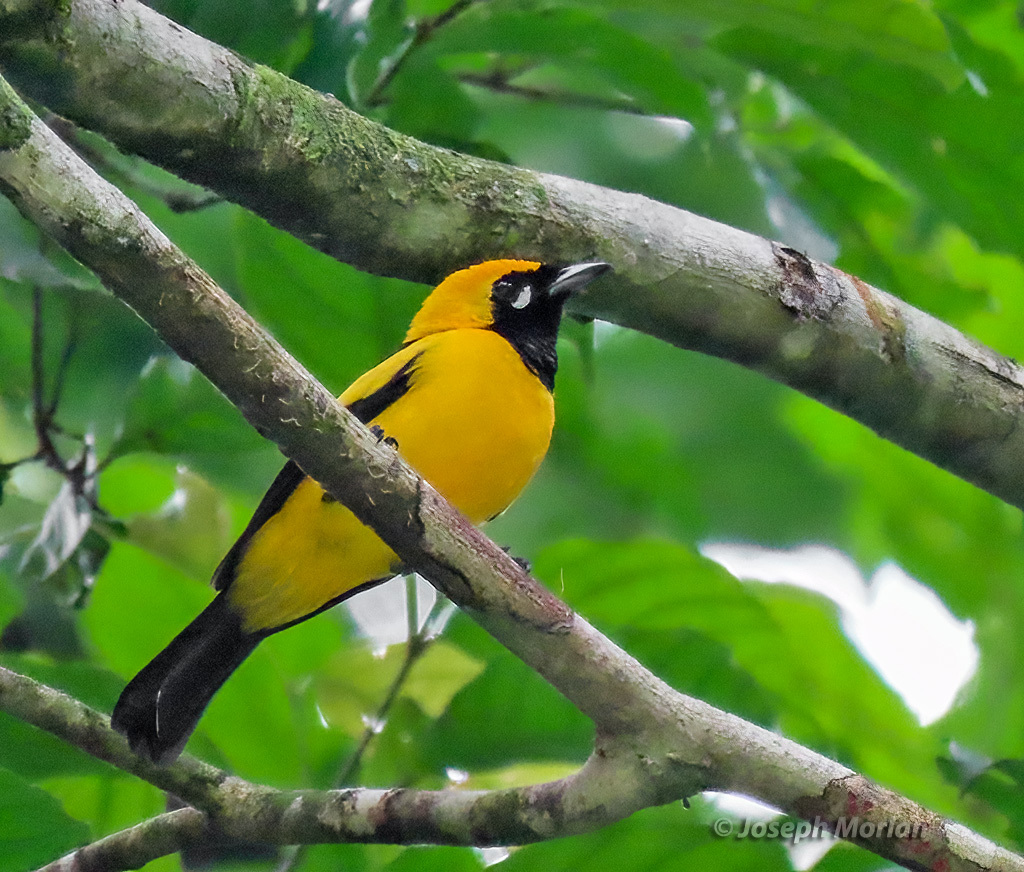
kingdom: Animalia
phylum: Chordata
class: Aves
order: Passeriformes
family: Monarchidae
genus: Carterornis
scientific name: Carterornis chrysomela
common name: Golden monarch
